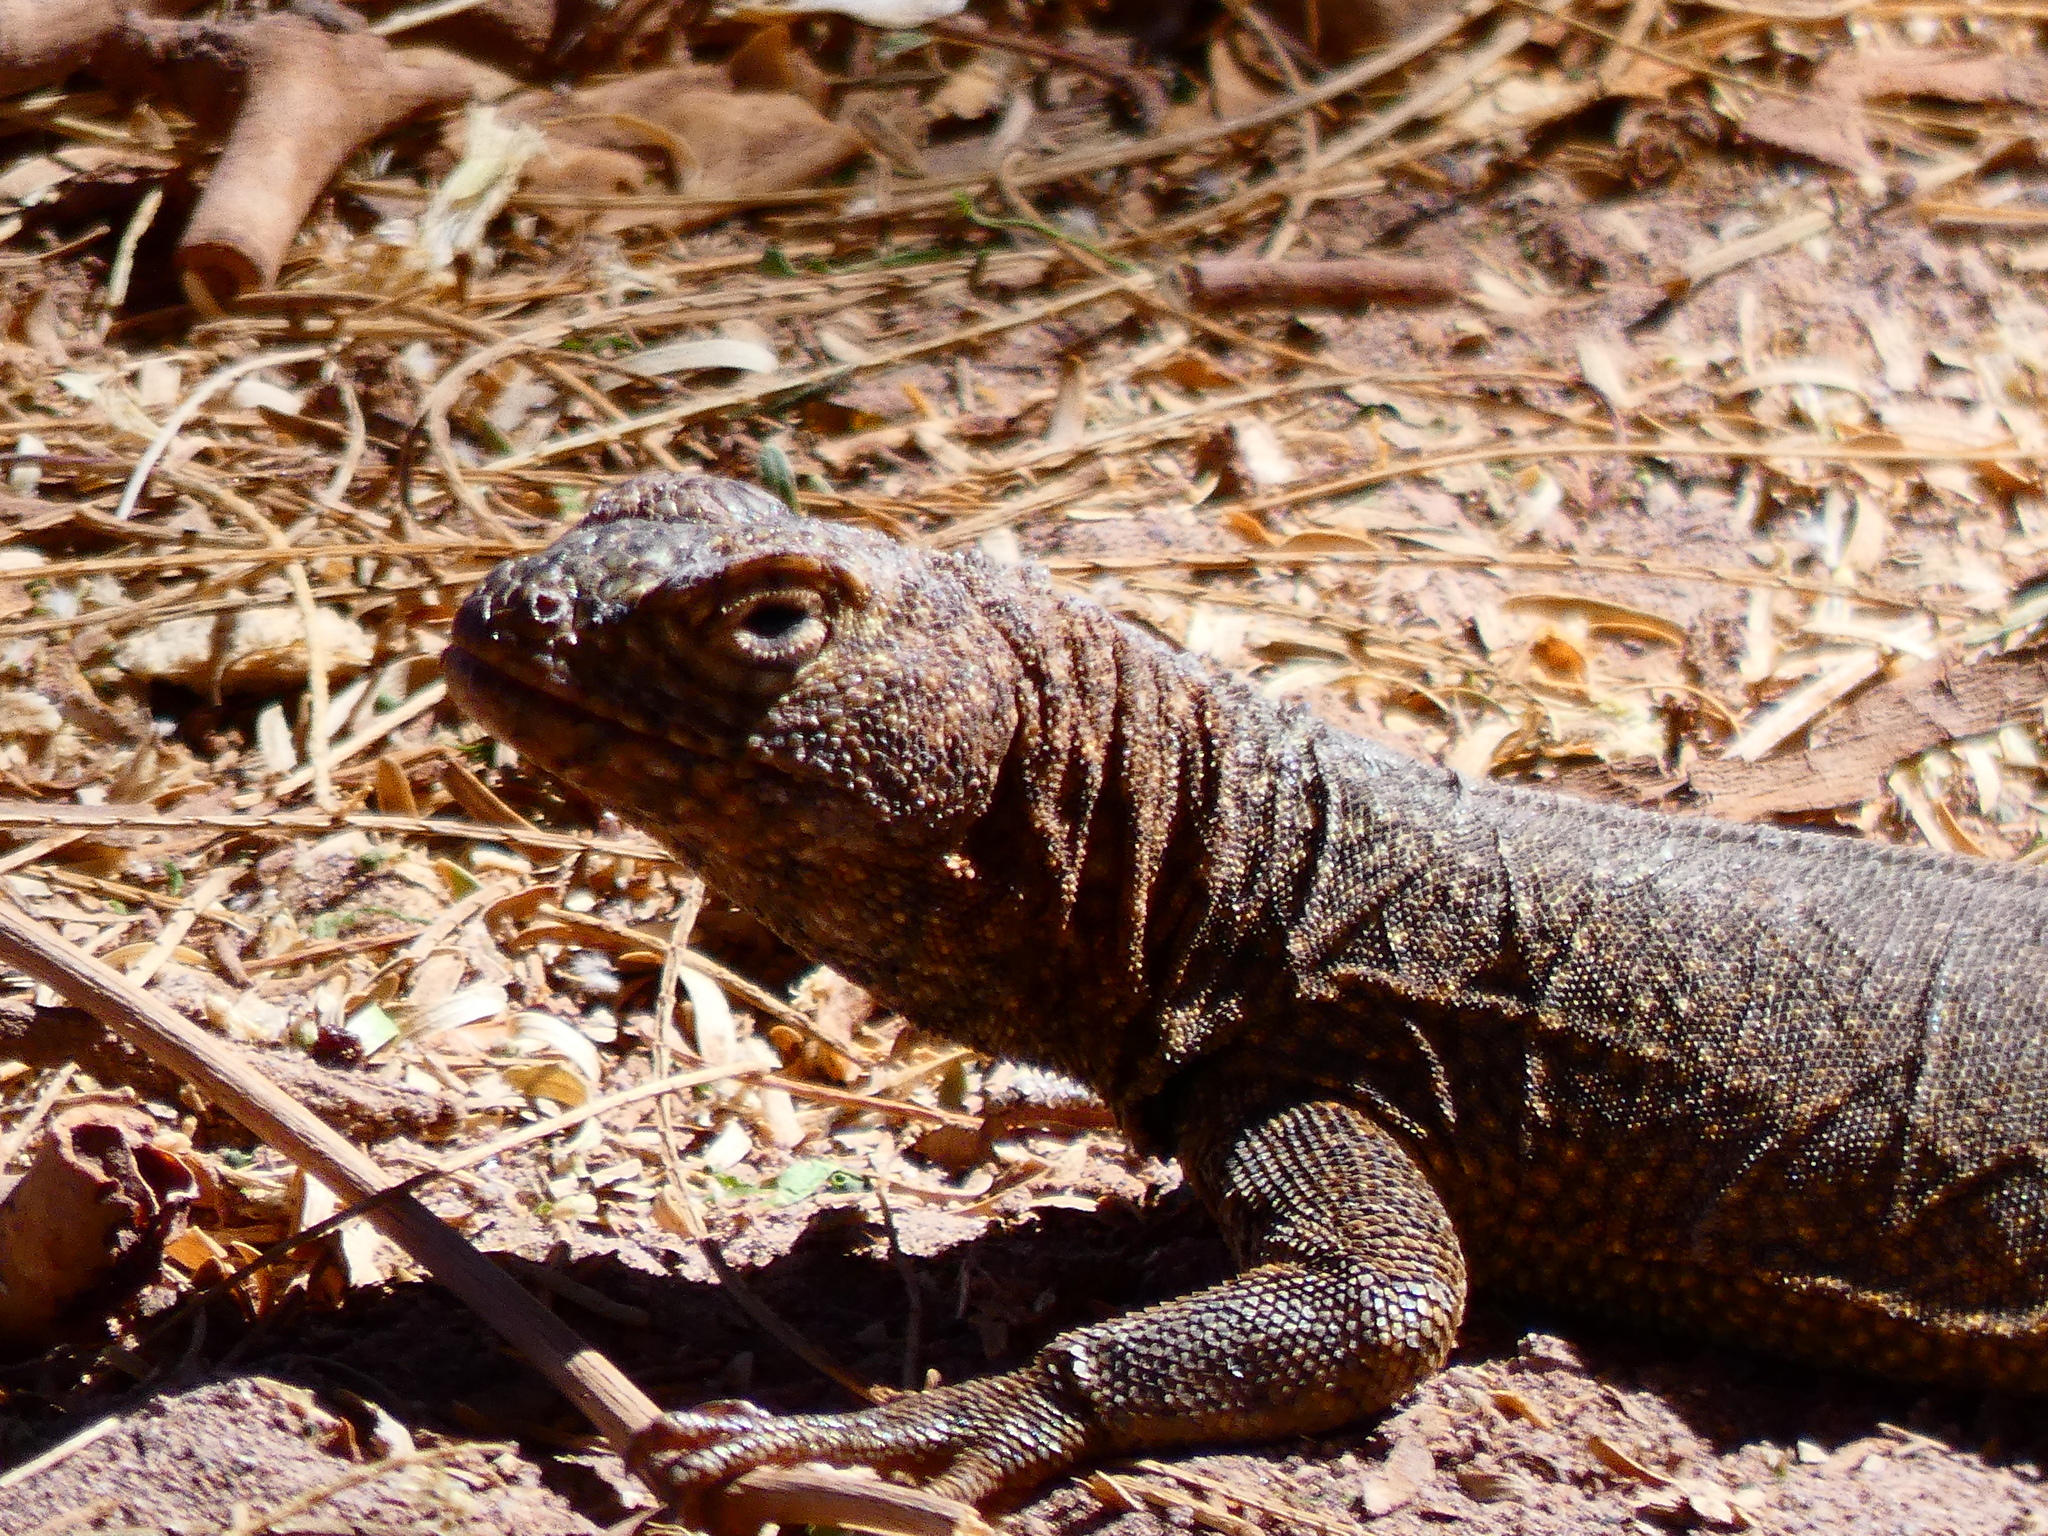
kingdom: Animalia
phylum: Chordata
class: Squamata
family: Tropiduridae
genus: Microlophus
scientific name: Microlophus theresioides
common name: Small pacific iguana
